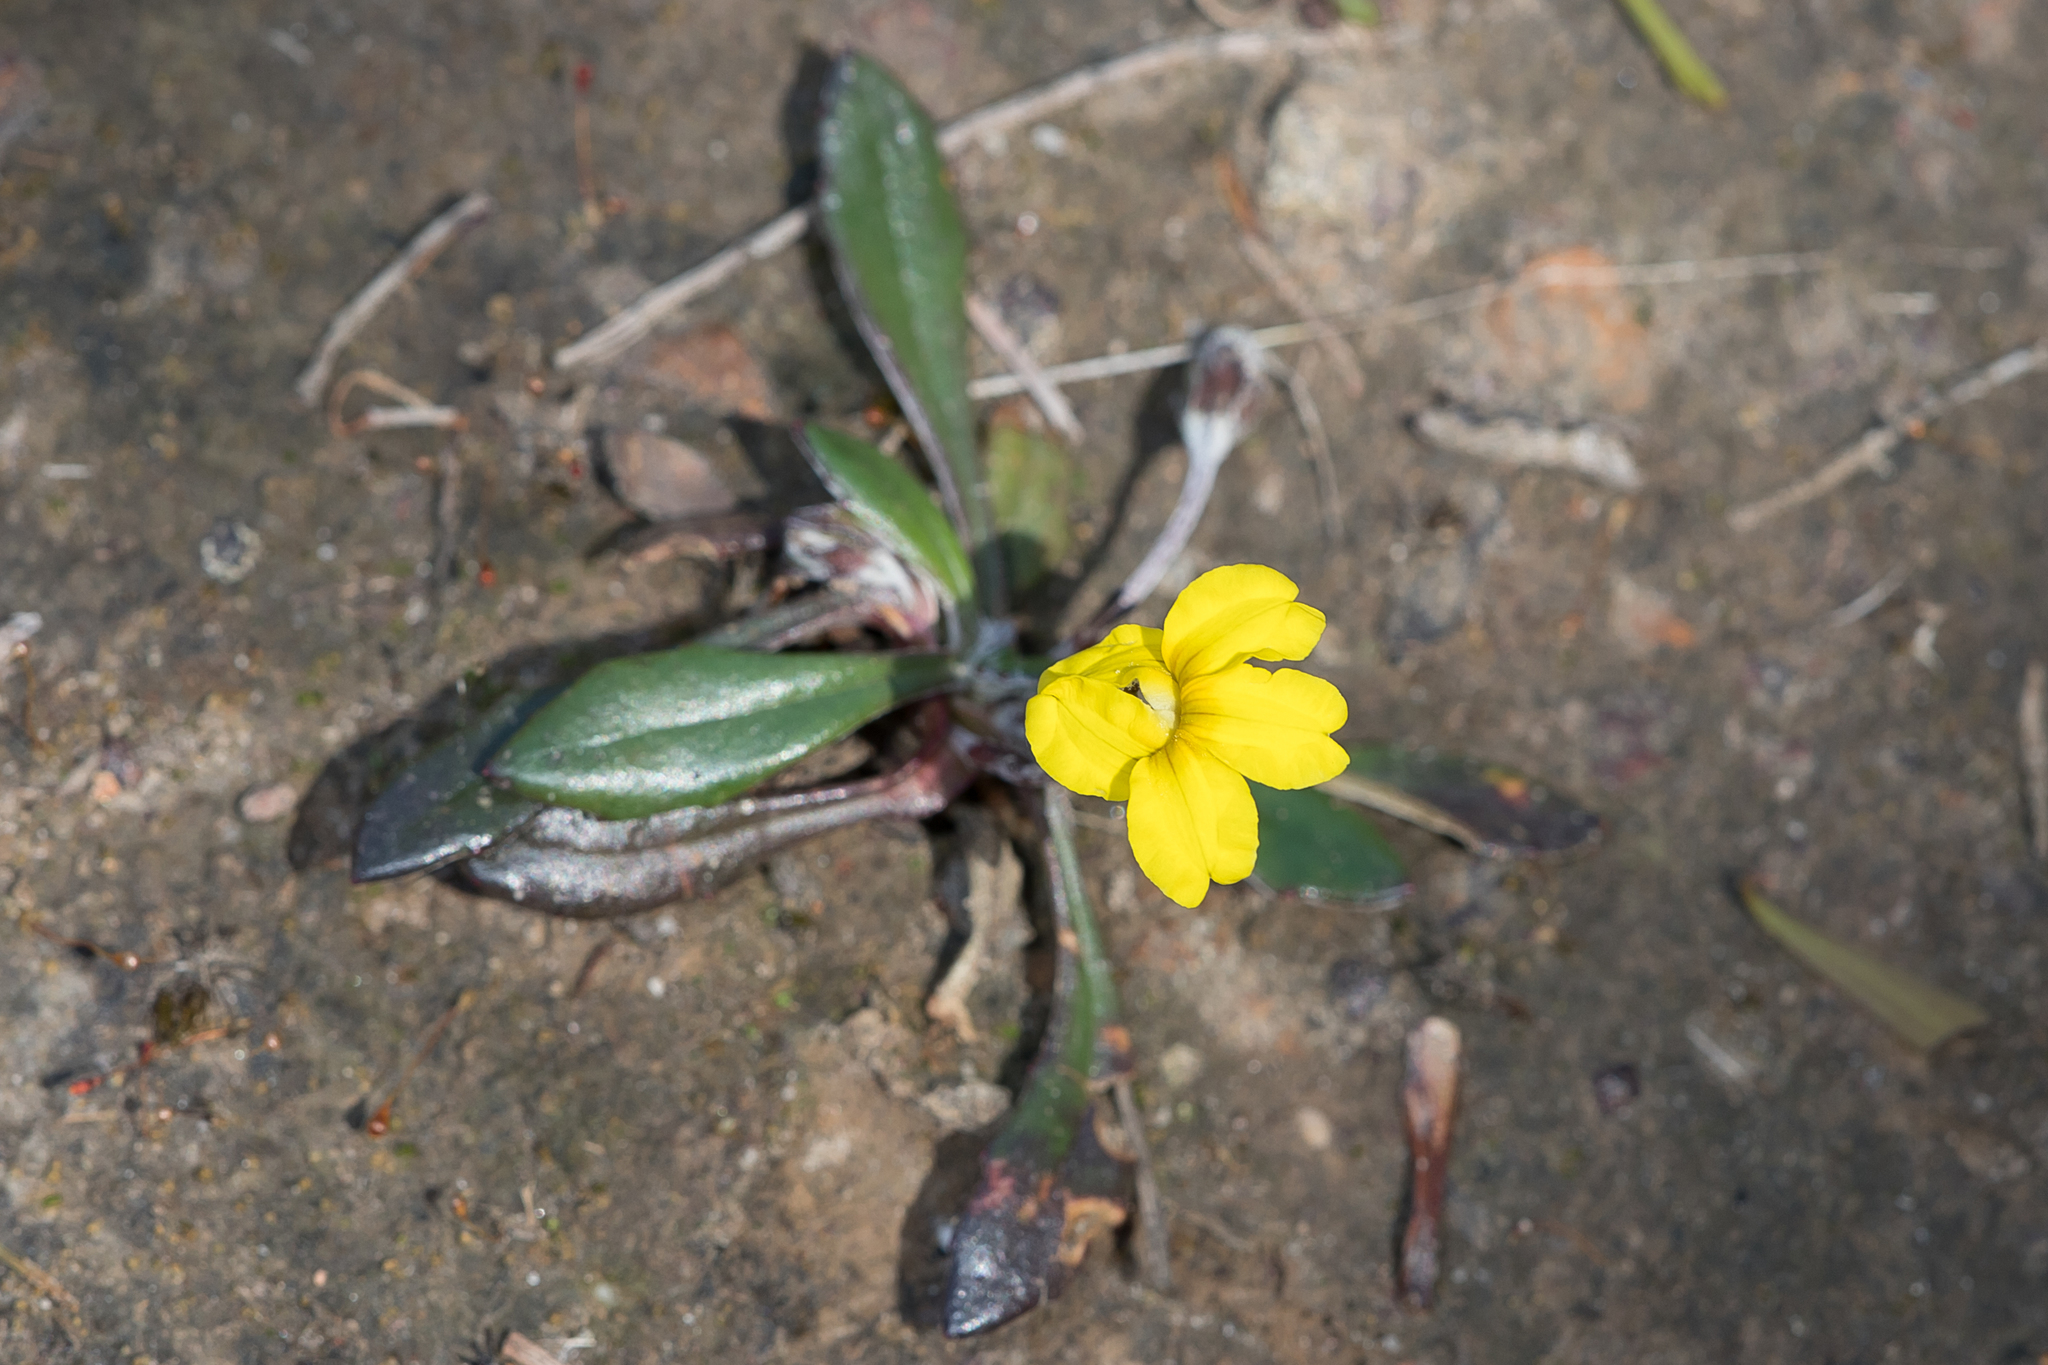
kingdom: Plantae
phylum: Tracheophyta
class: Magnoliopsida
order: Asterales
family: Goodeniaceae
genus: Goodenia
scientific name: Goodenia blackiana
